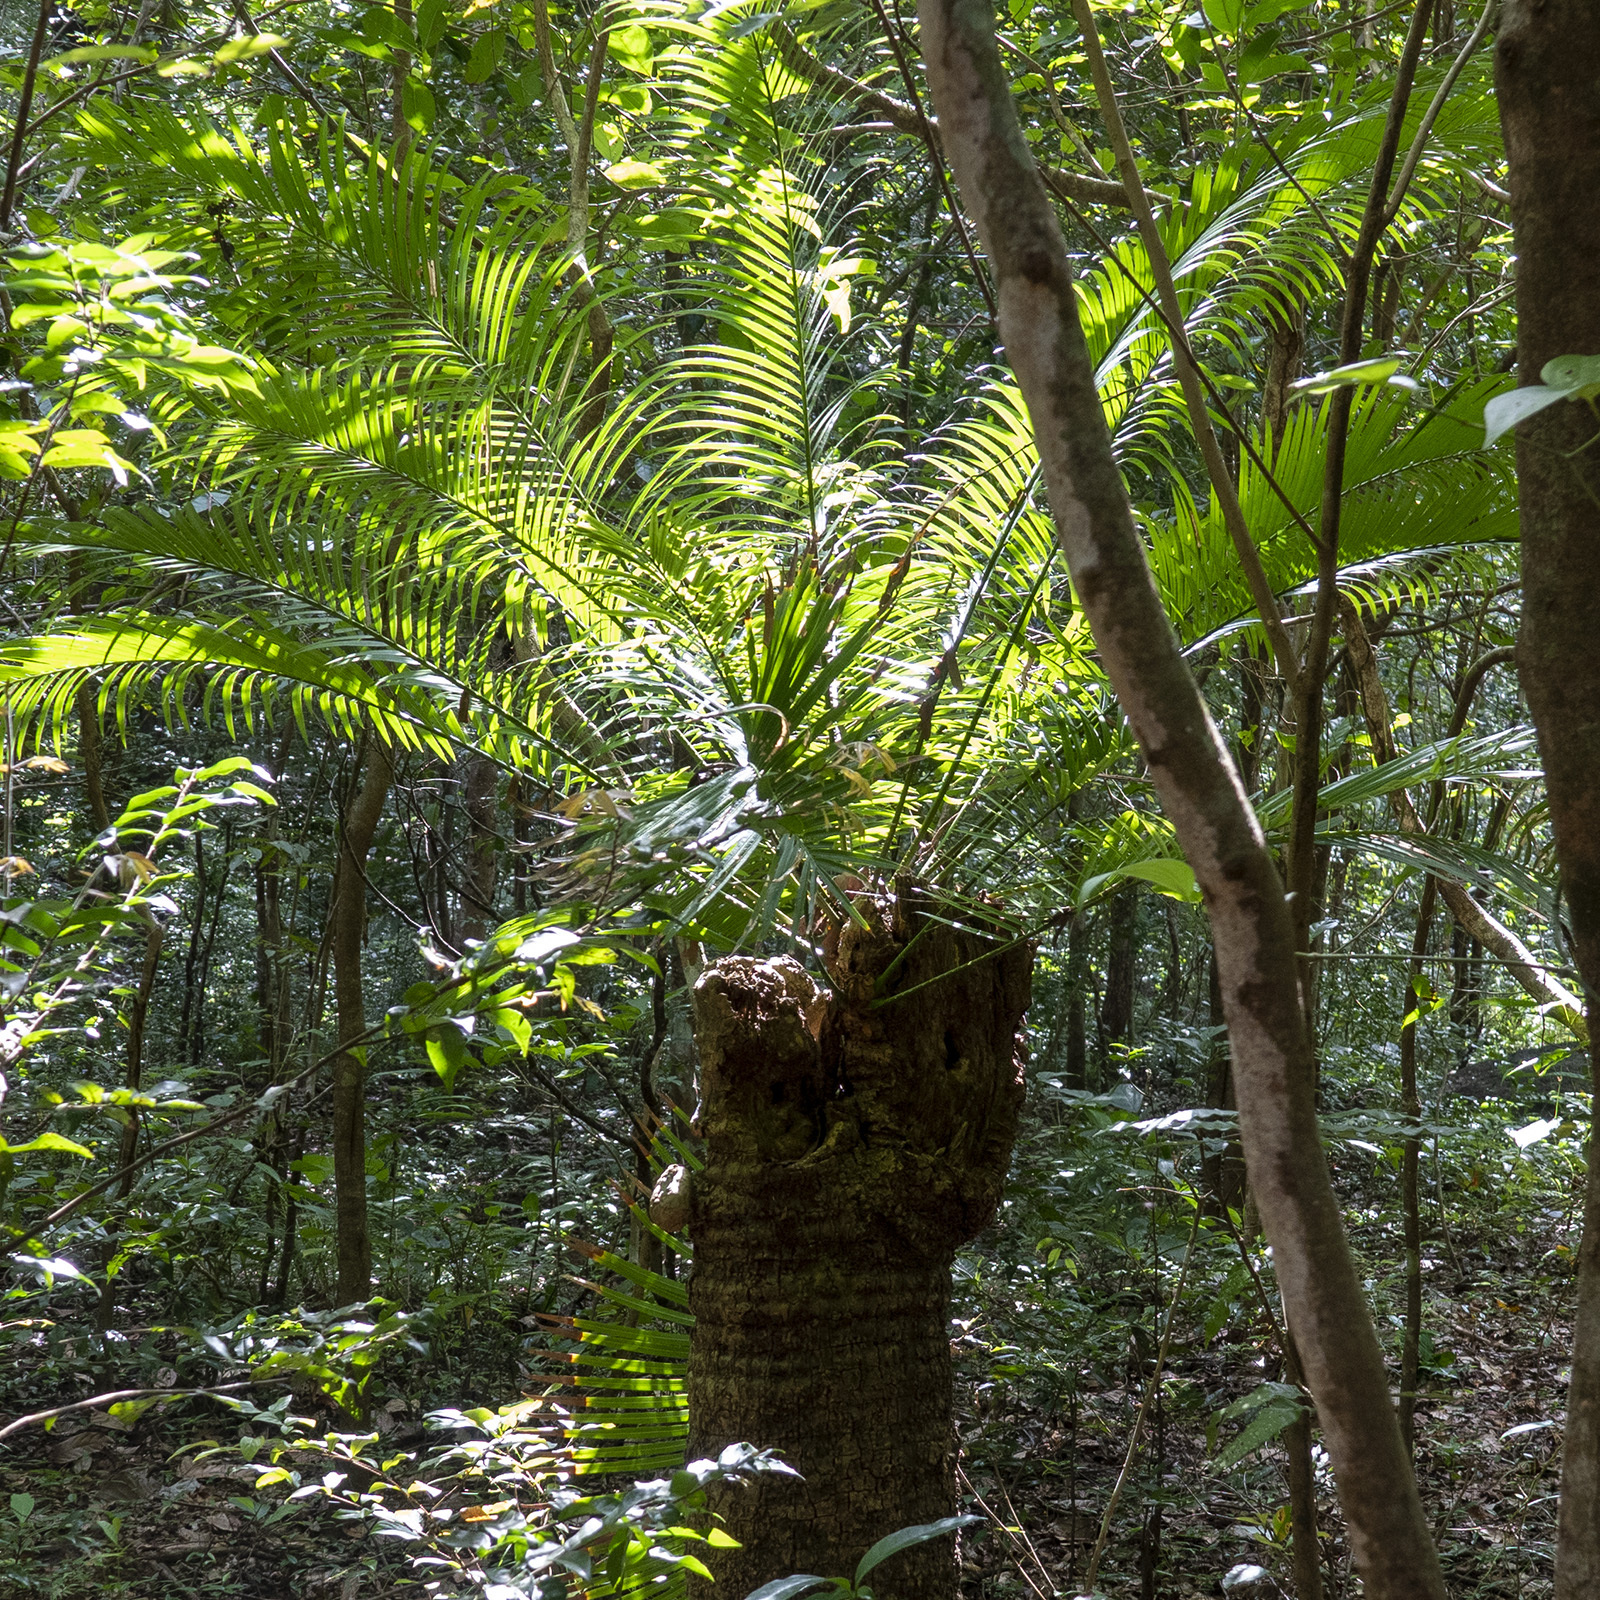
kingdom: Plantae
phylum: Tracheophyta
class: Cycadopsida
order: Cycadales
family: Cycadaceae
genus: Cycas
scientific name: Cycas circinalis
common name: Queen sago
